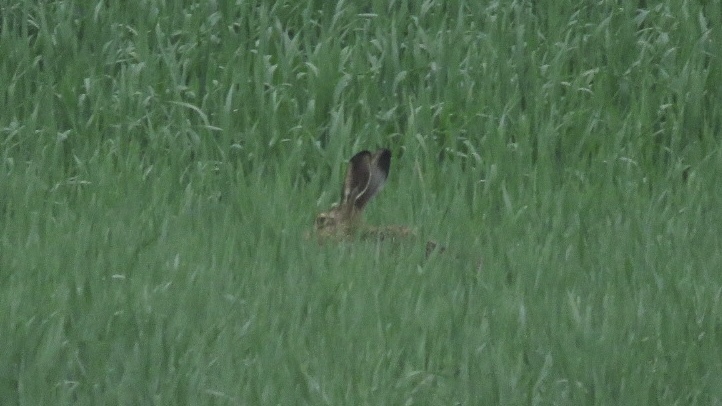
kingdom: Animalia
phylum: Chordata
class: Mammalia
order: Lagomorpha
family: Leporidae
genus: Lepus
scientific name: Lepus europaeus
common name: European hare
